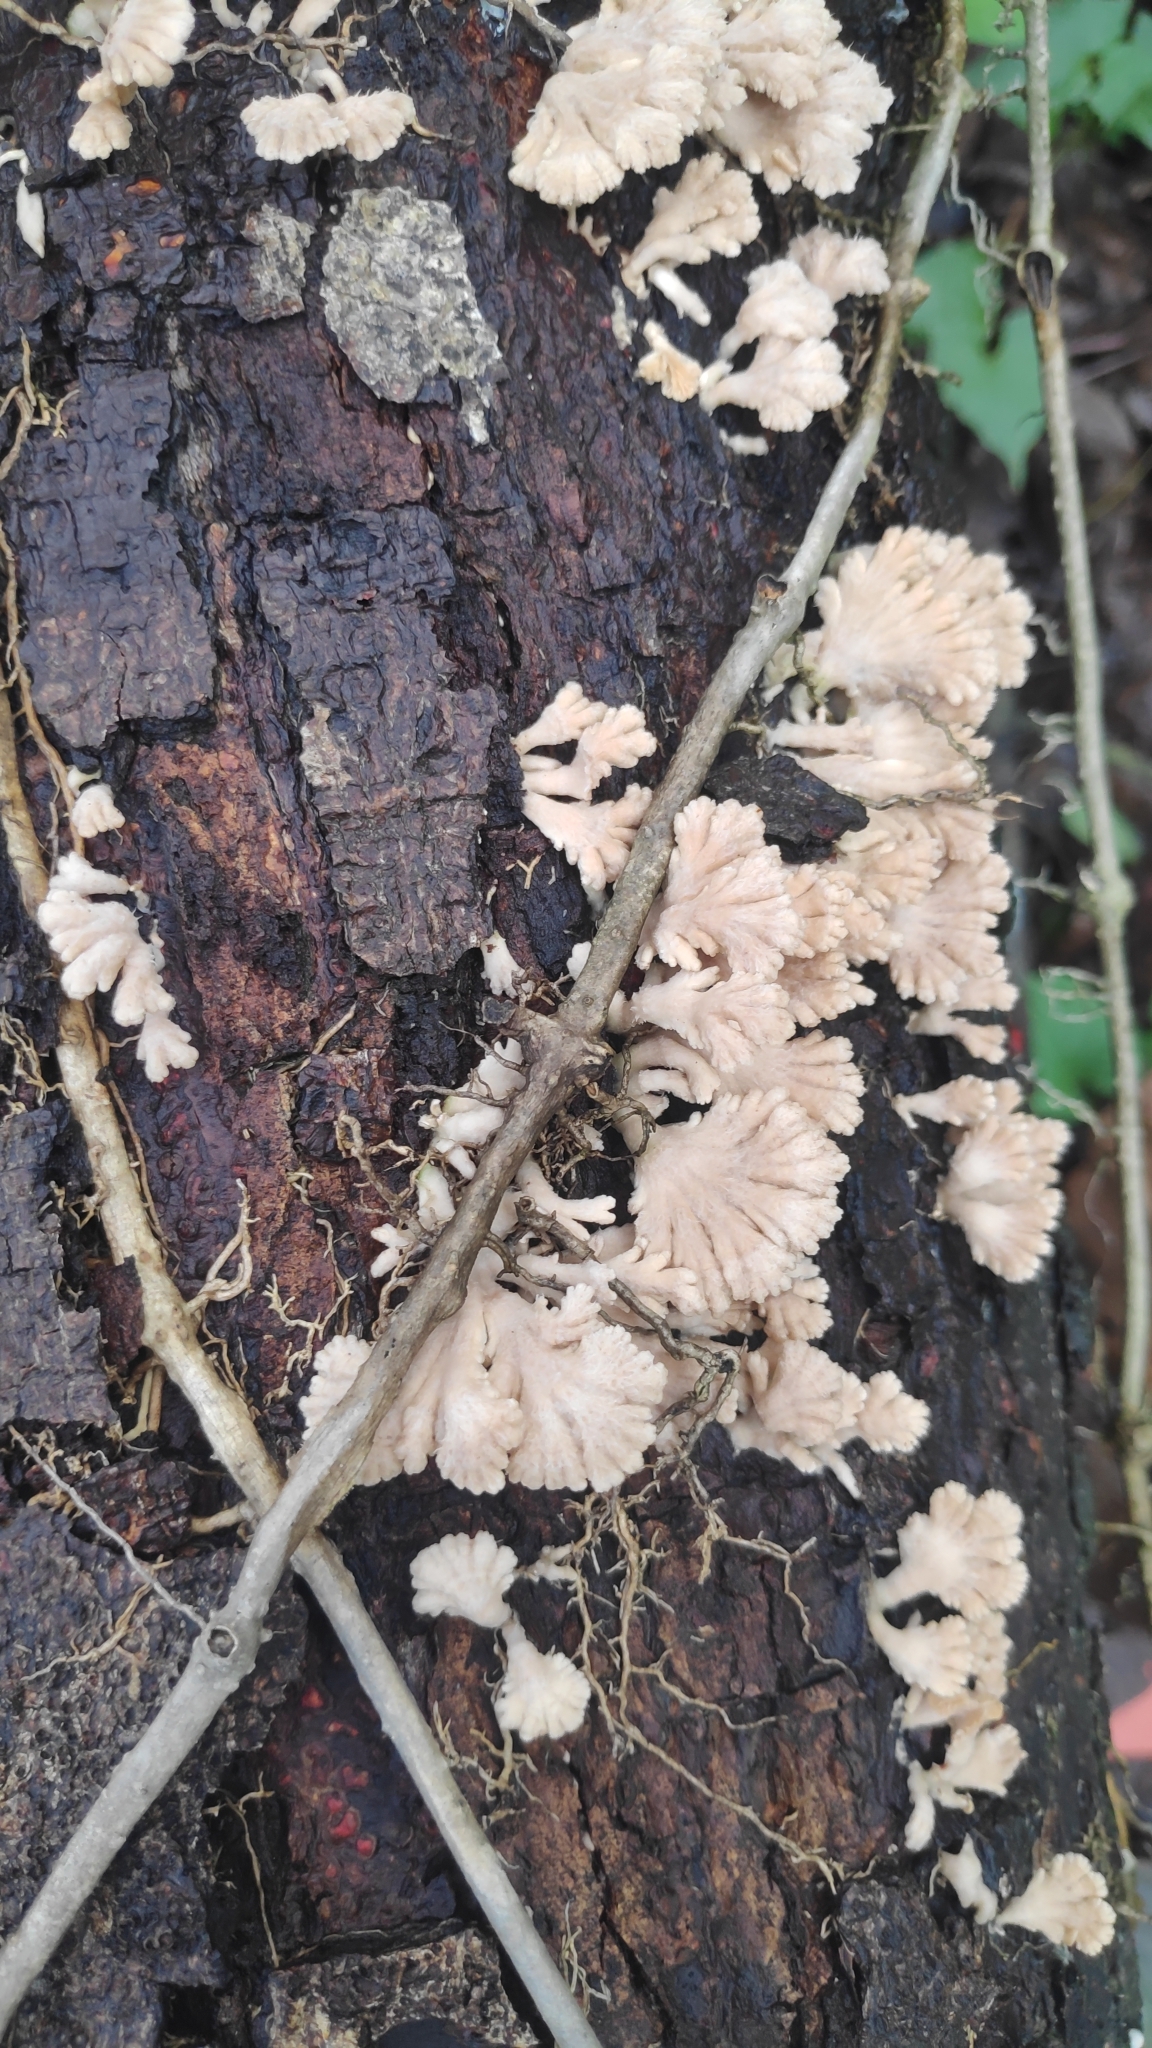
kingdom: Fungi
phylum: Basidiomycota
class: Agaricomycetes
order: Agaricales
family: Schizophyllaceae
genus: Schizophyllum
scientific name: Schizophyllum commune
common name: Common porecrust
